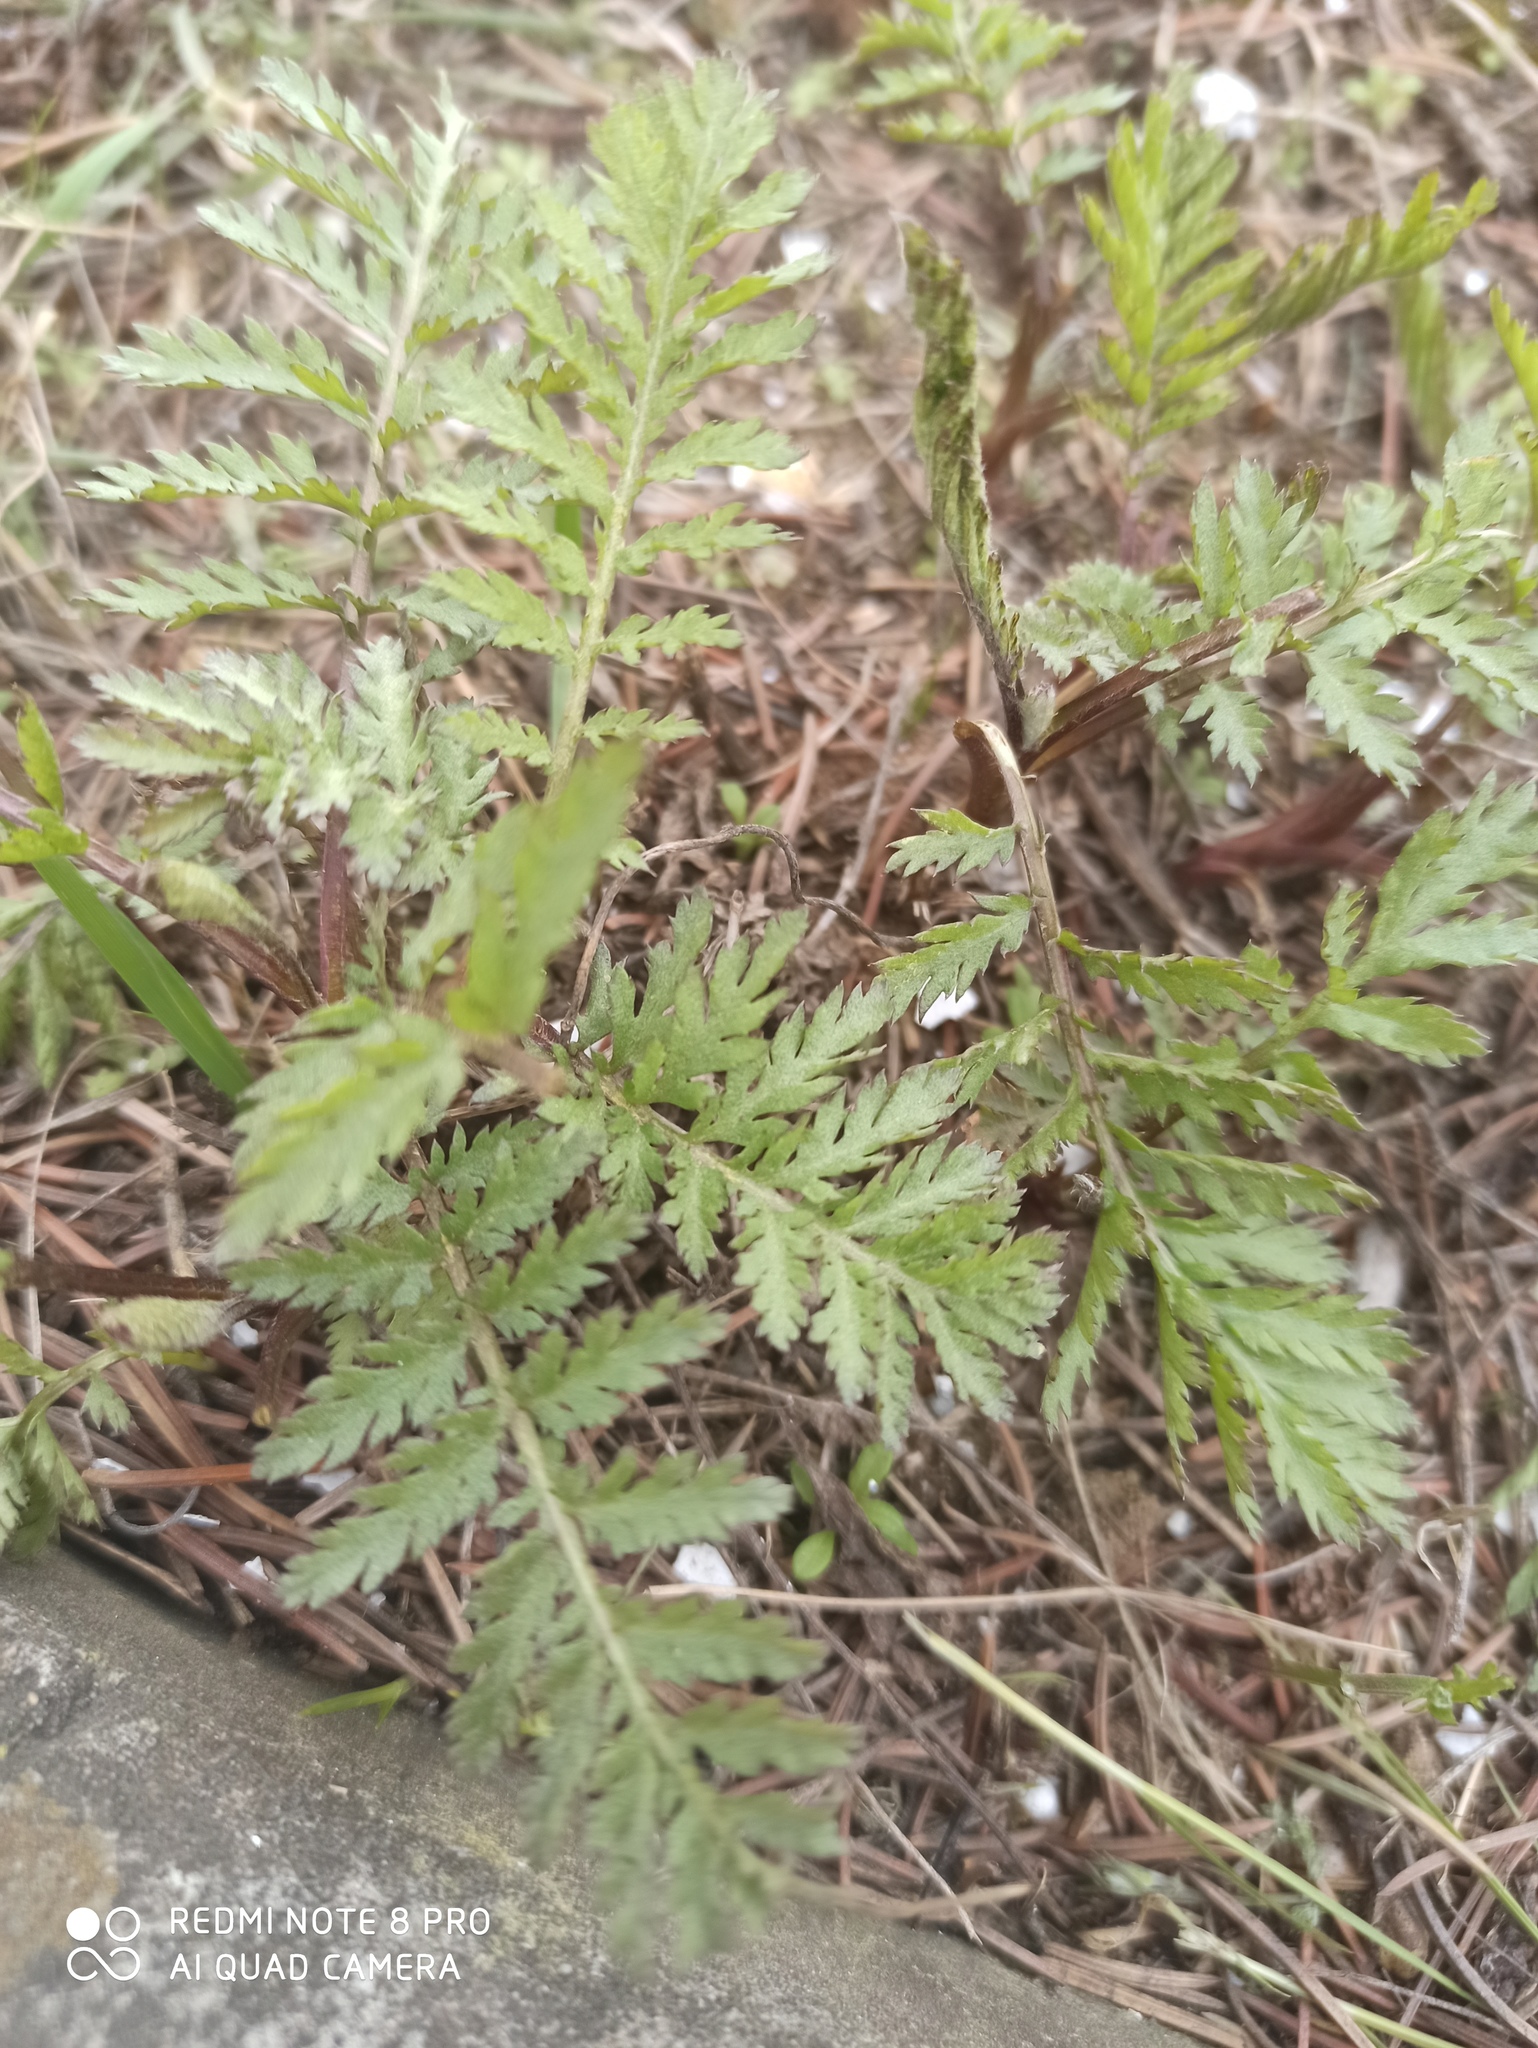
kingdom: Plantae
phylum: Tracheophyta
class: Magnoliopsida
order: Asterales
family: Asteraceae
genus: Tanacetum
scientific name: Tanacetum vulgare
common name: Common tansy
